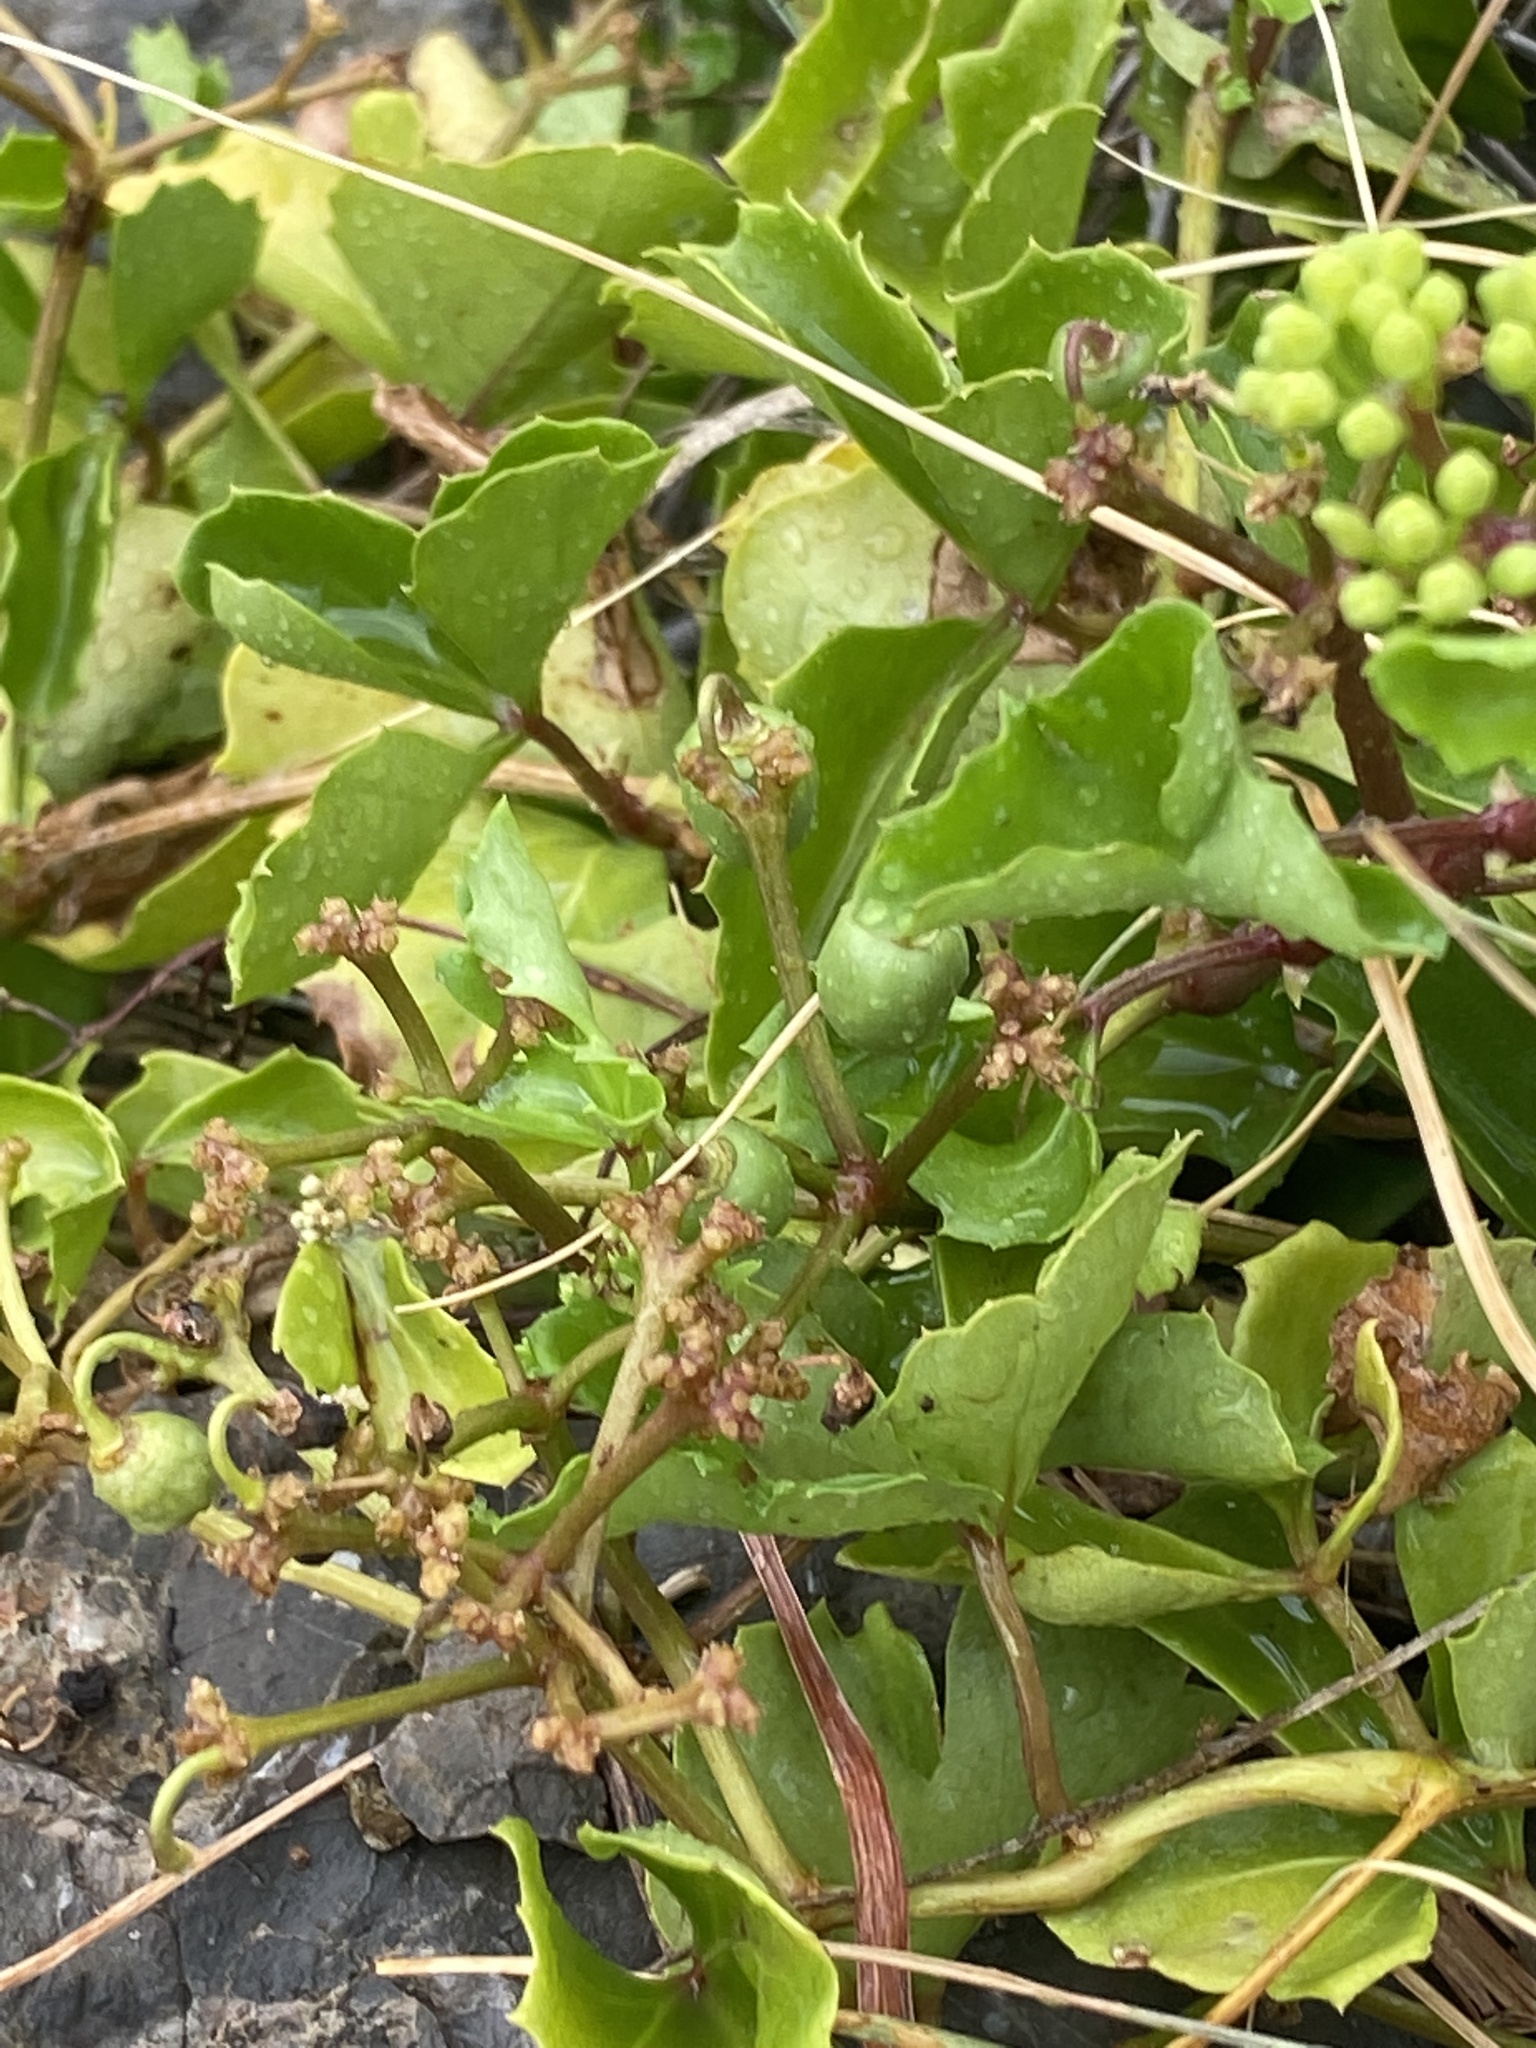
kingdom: Plantae
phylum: Tracheophyta
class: Magnoliopsida
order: Vitales
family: Vitaceae
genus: Cissus
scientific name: Cissus trifoliata
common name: Vine-sorrel
